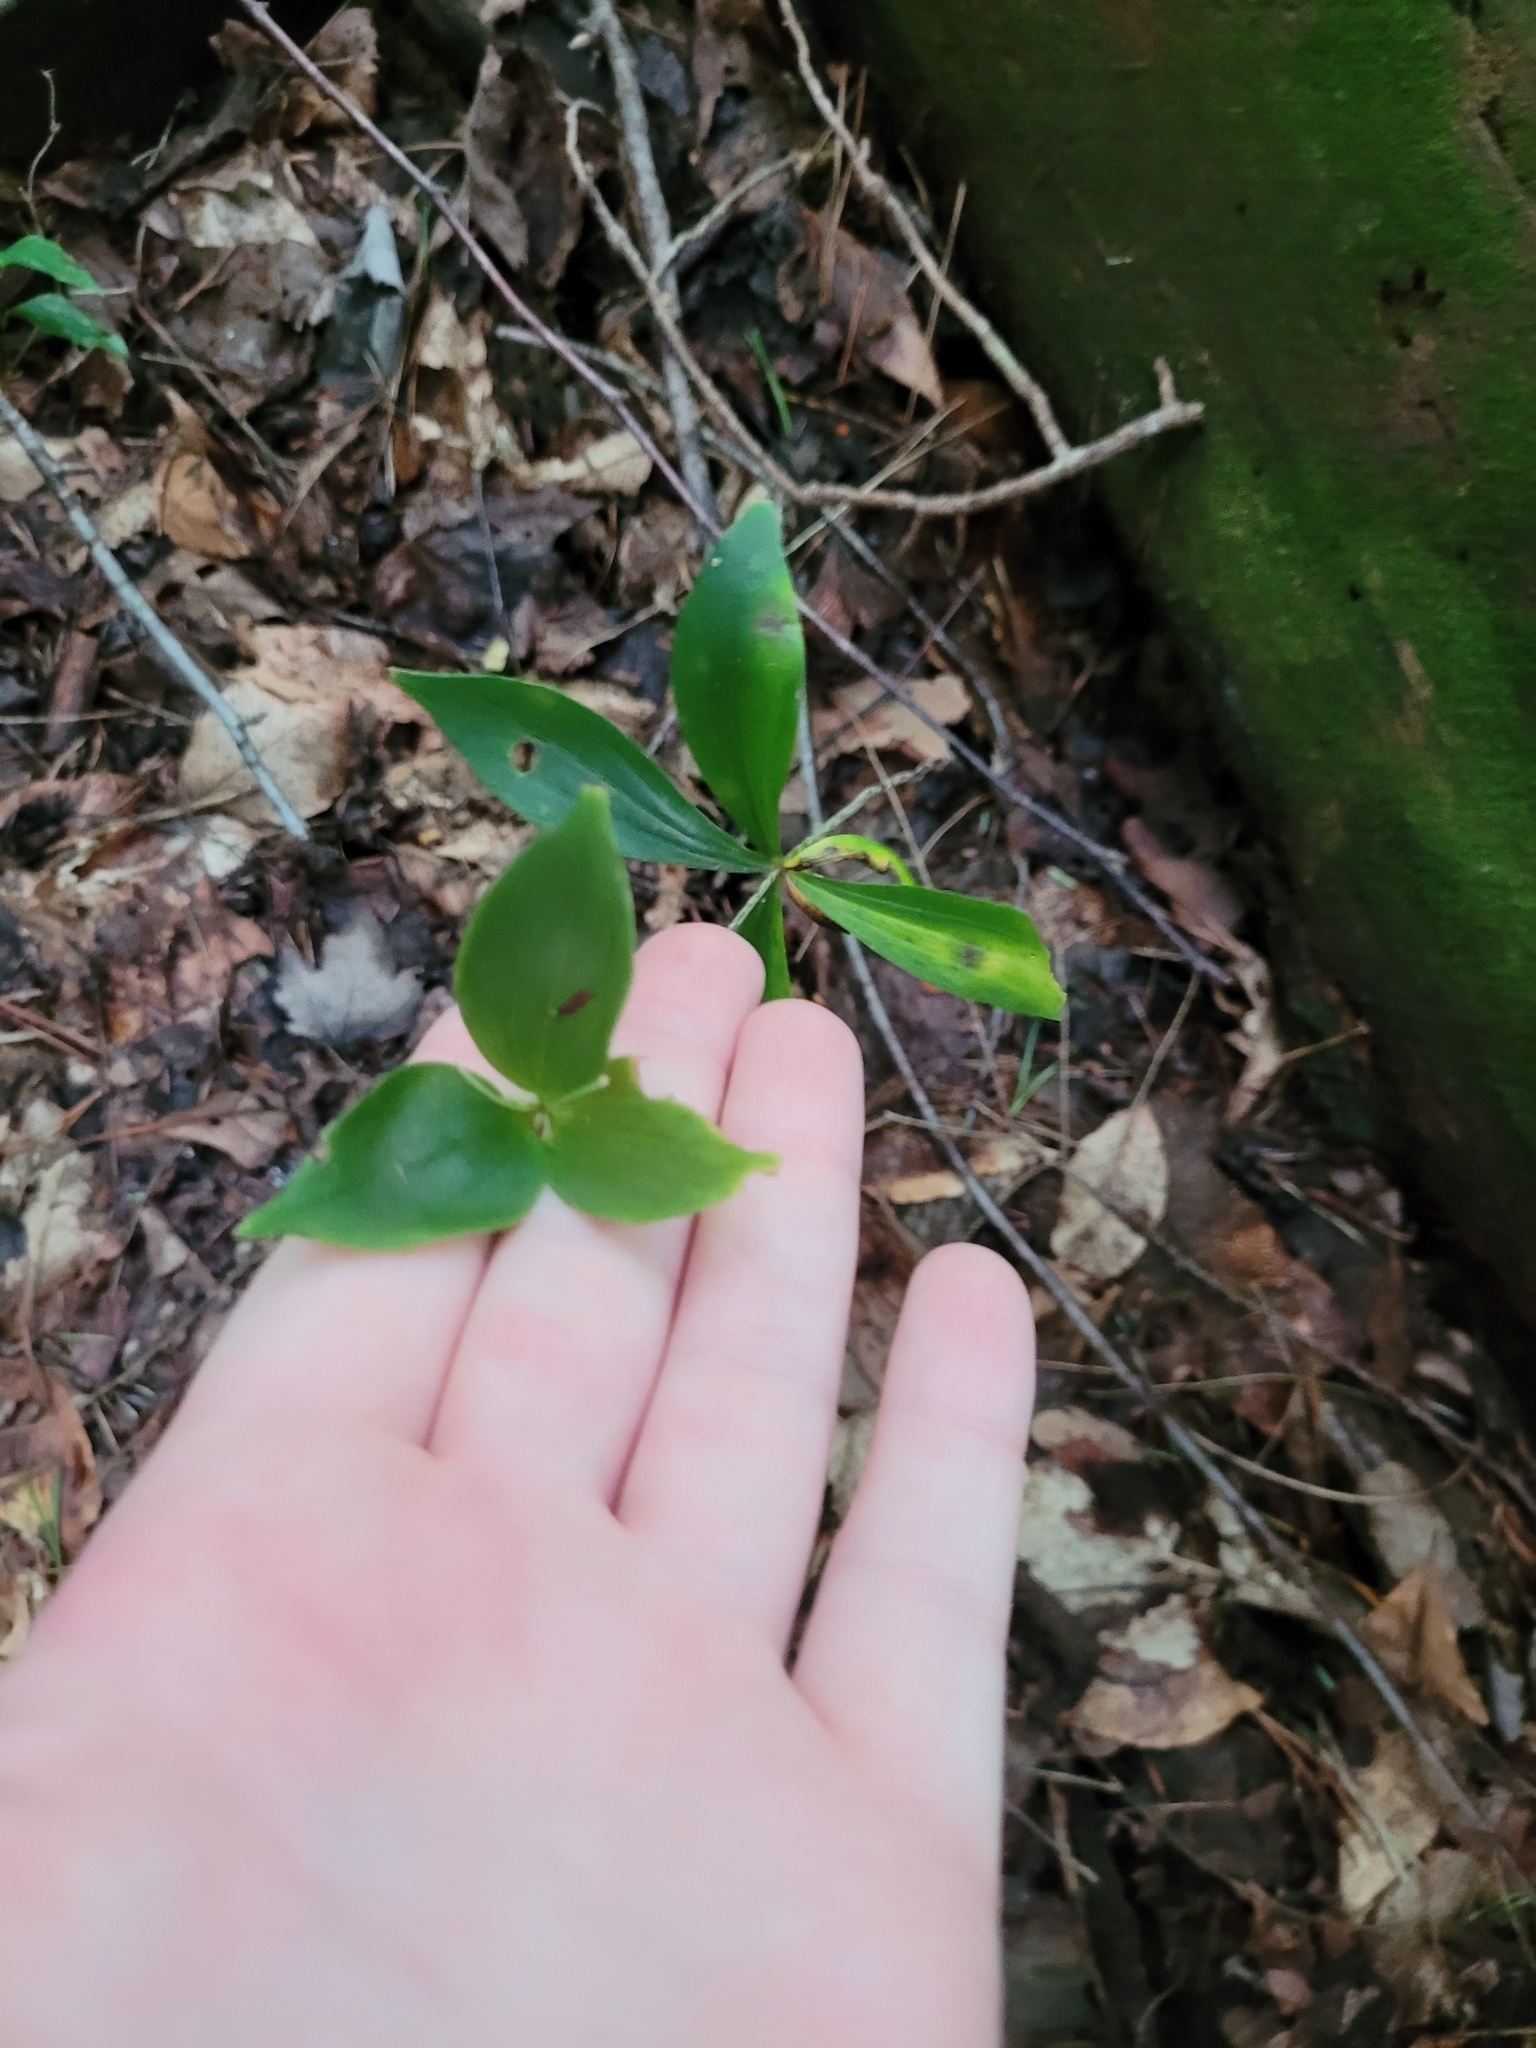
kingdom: Plantae
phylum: Tracheophyta
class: Liliopsida
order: Liliales
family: Liliaceae
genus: Medeola
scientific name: Medeola virginiana
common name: Indian cucumber-root
